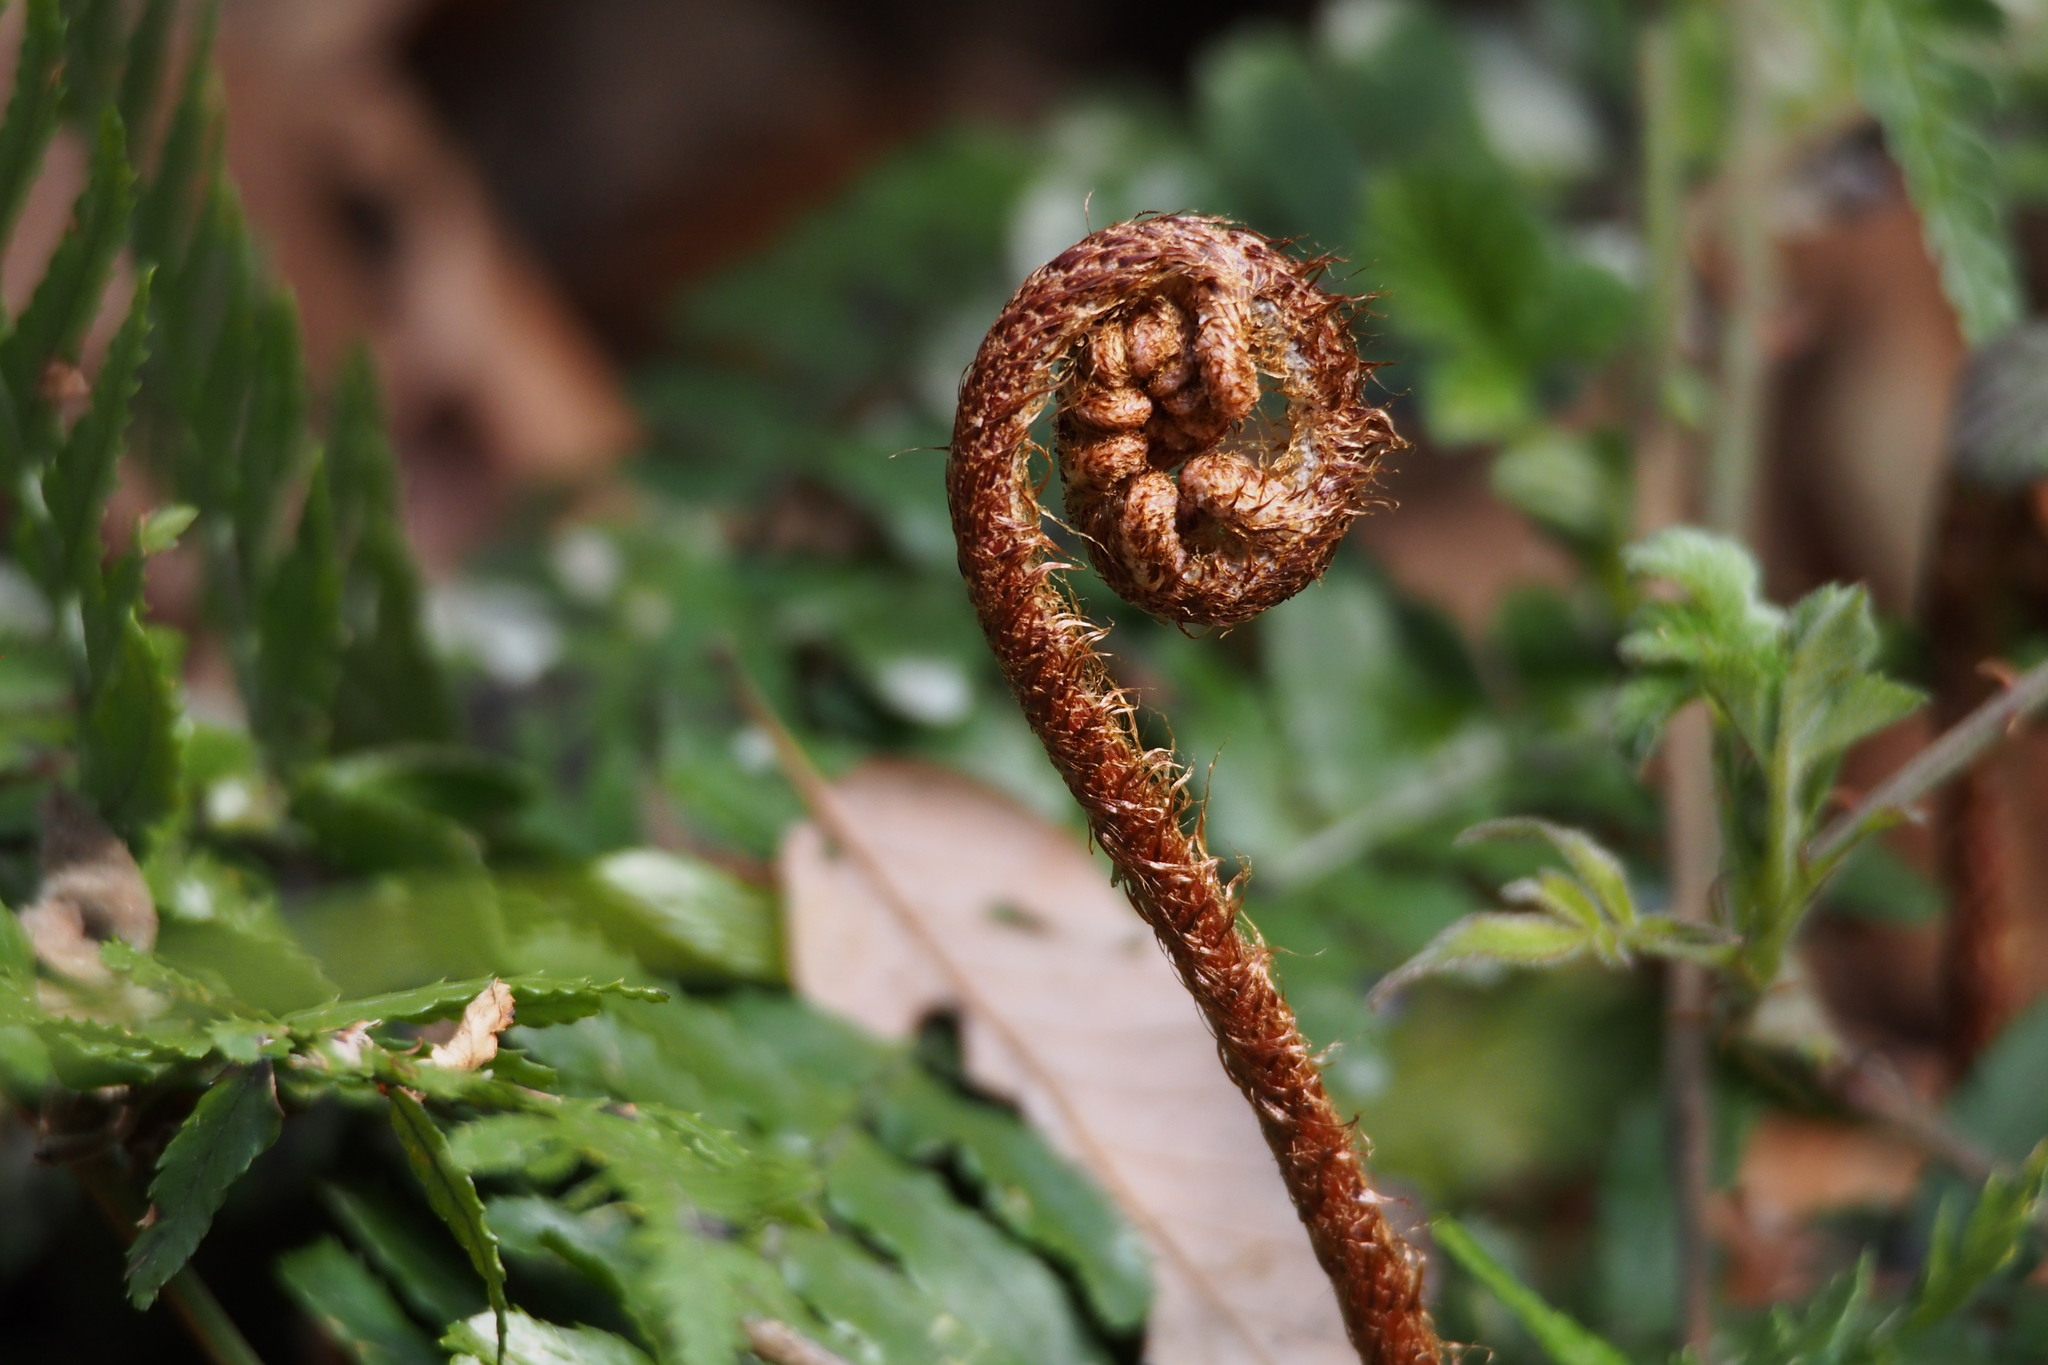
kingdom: Plantae
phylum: Tracheophyta
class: Polypodiopsida
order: Polypodiales
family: Dryopteridaceae
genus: Dryopteris
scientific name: Dryopteris erythrosora
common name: Autumn fern
